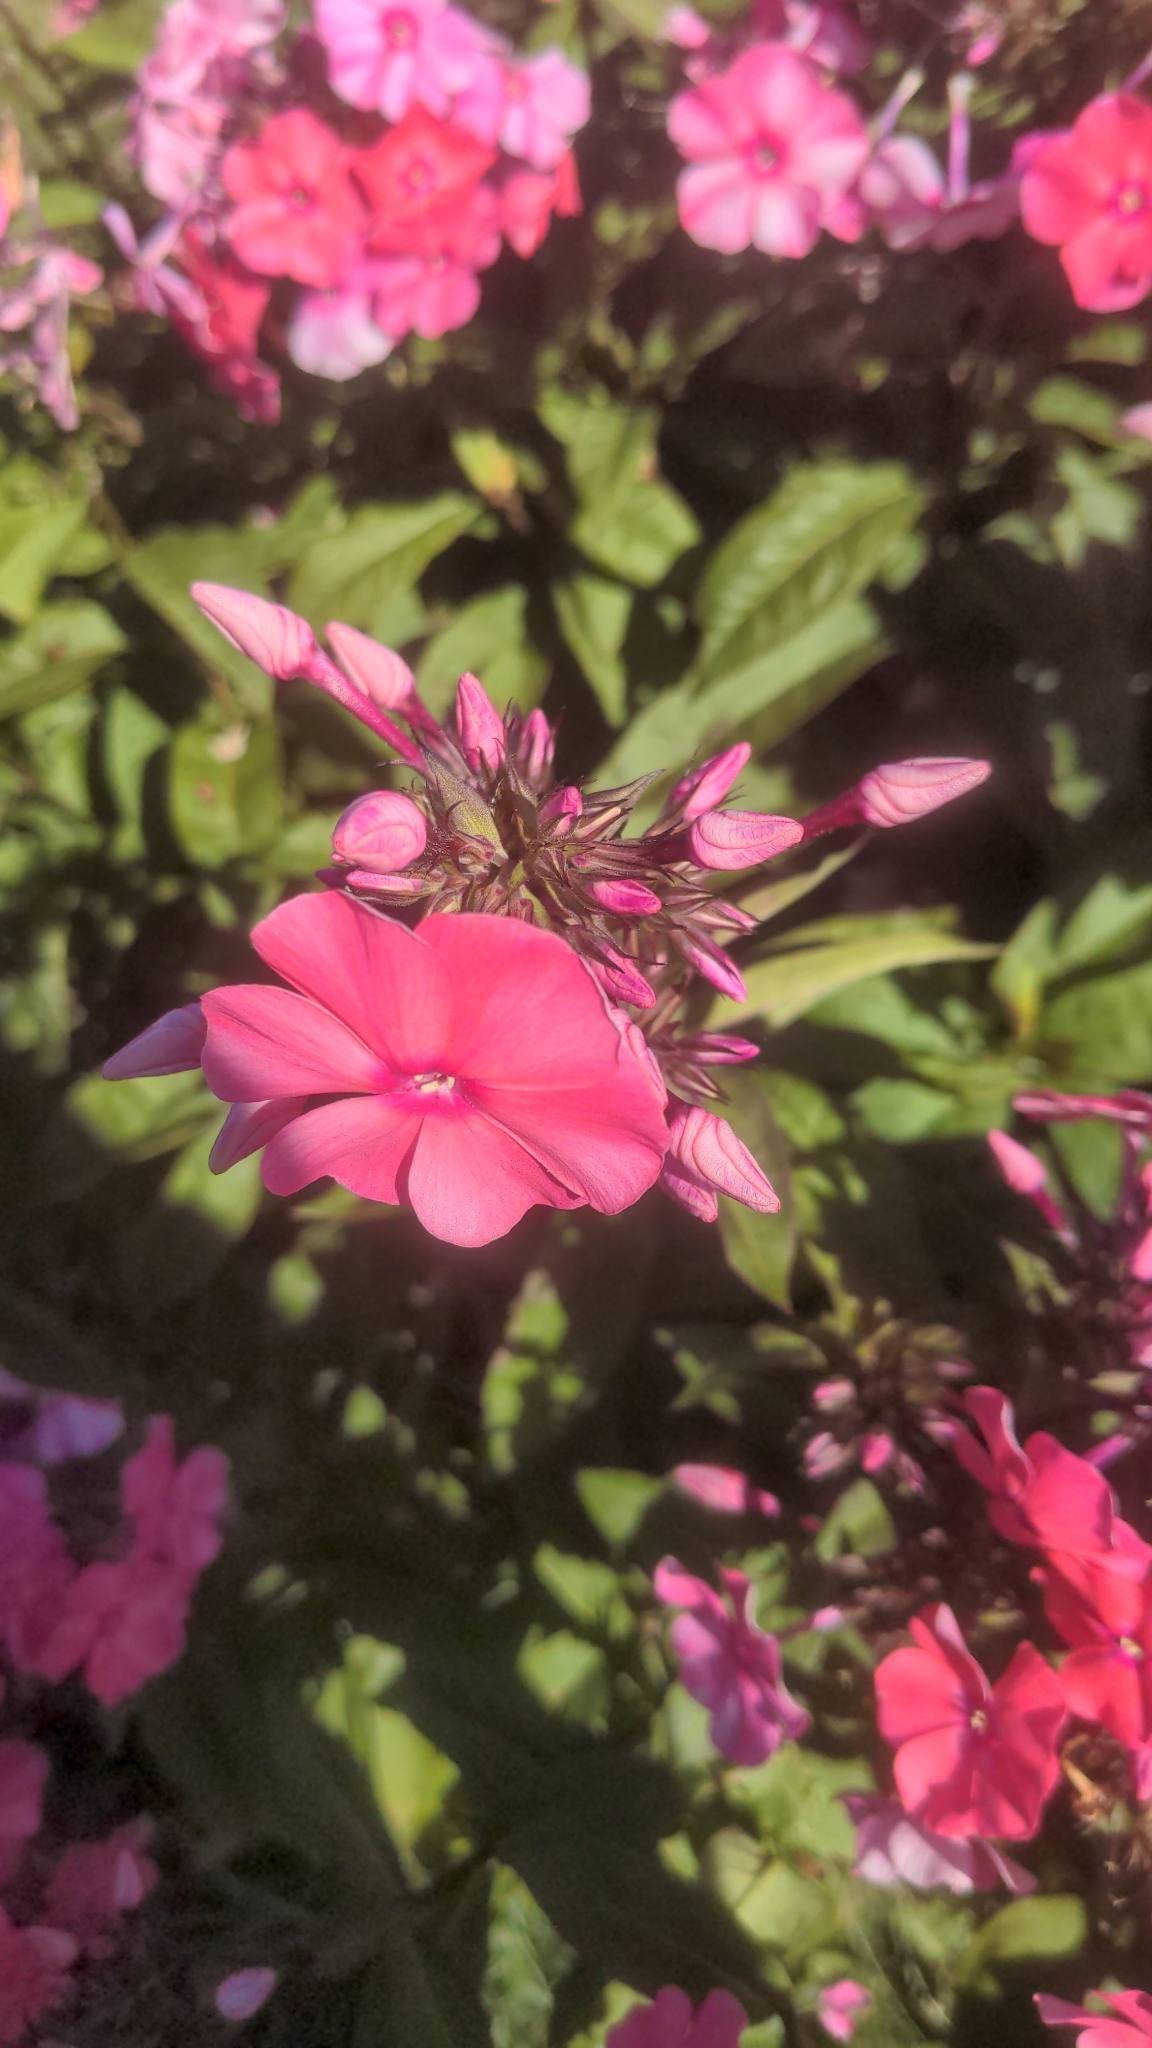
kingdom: Plantae
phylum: Tracheophyta
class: Magnoliopsida
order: Ericales
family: Polemoniaceae
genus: Phlox
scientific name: Phlox paniculata
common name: Fall phlox
